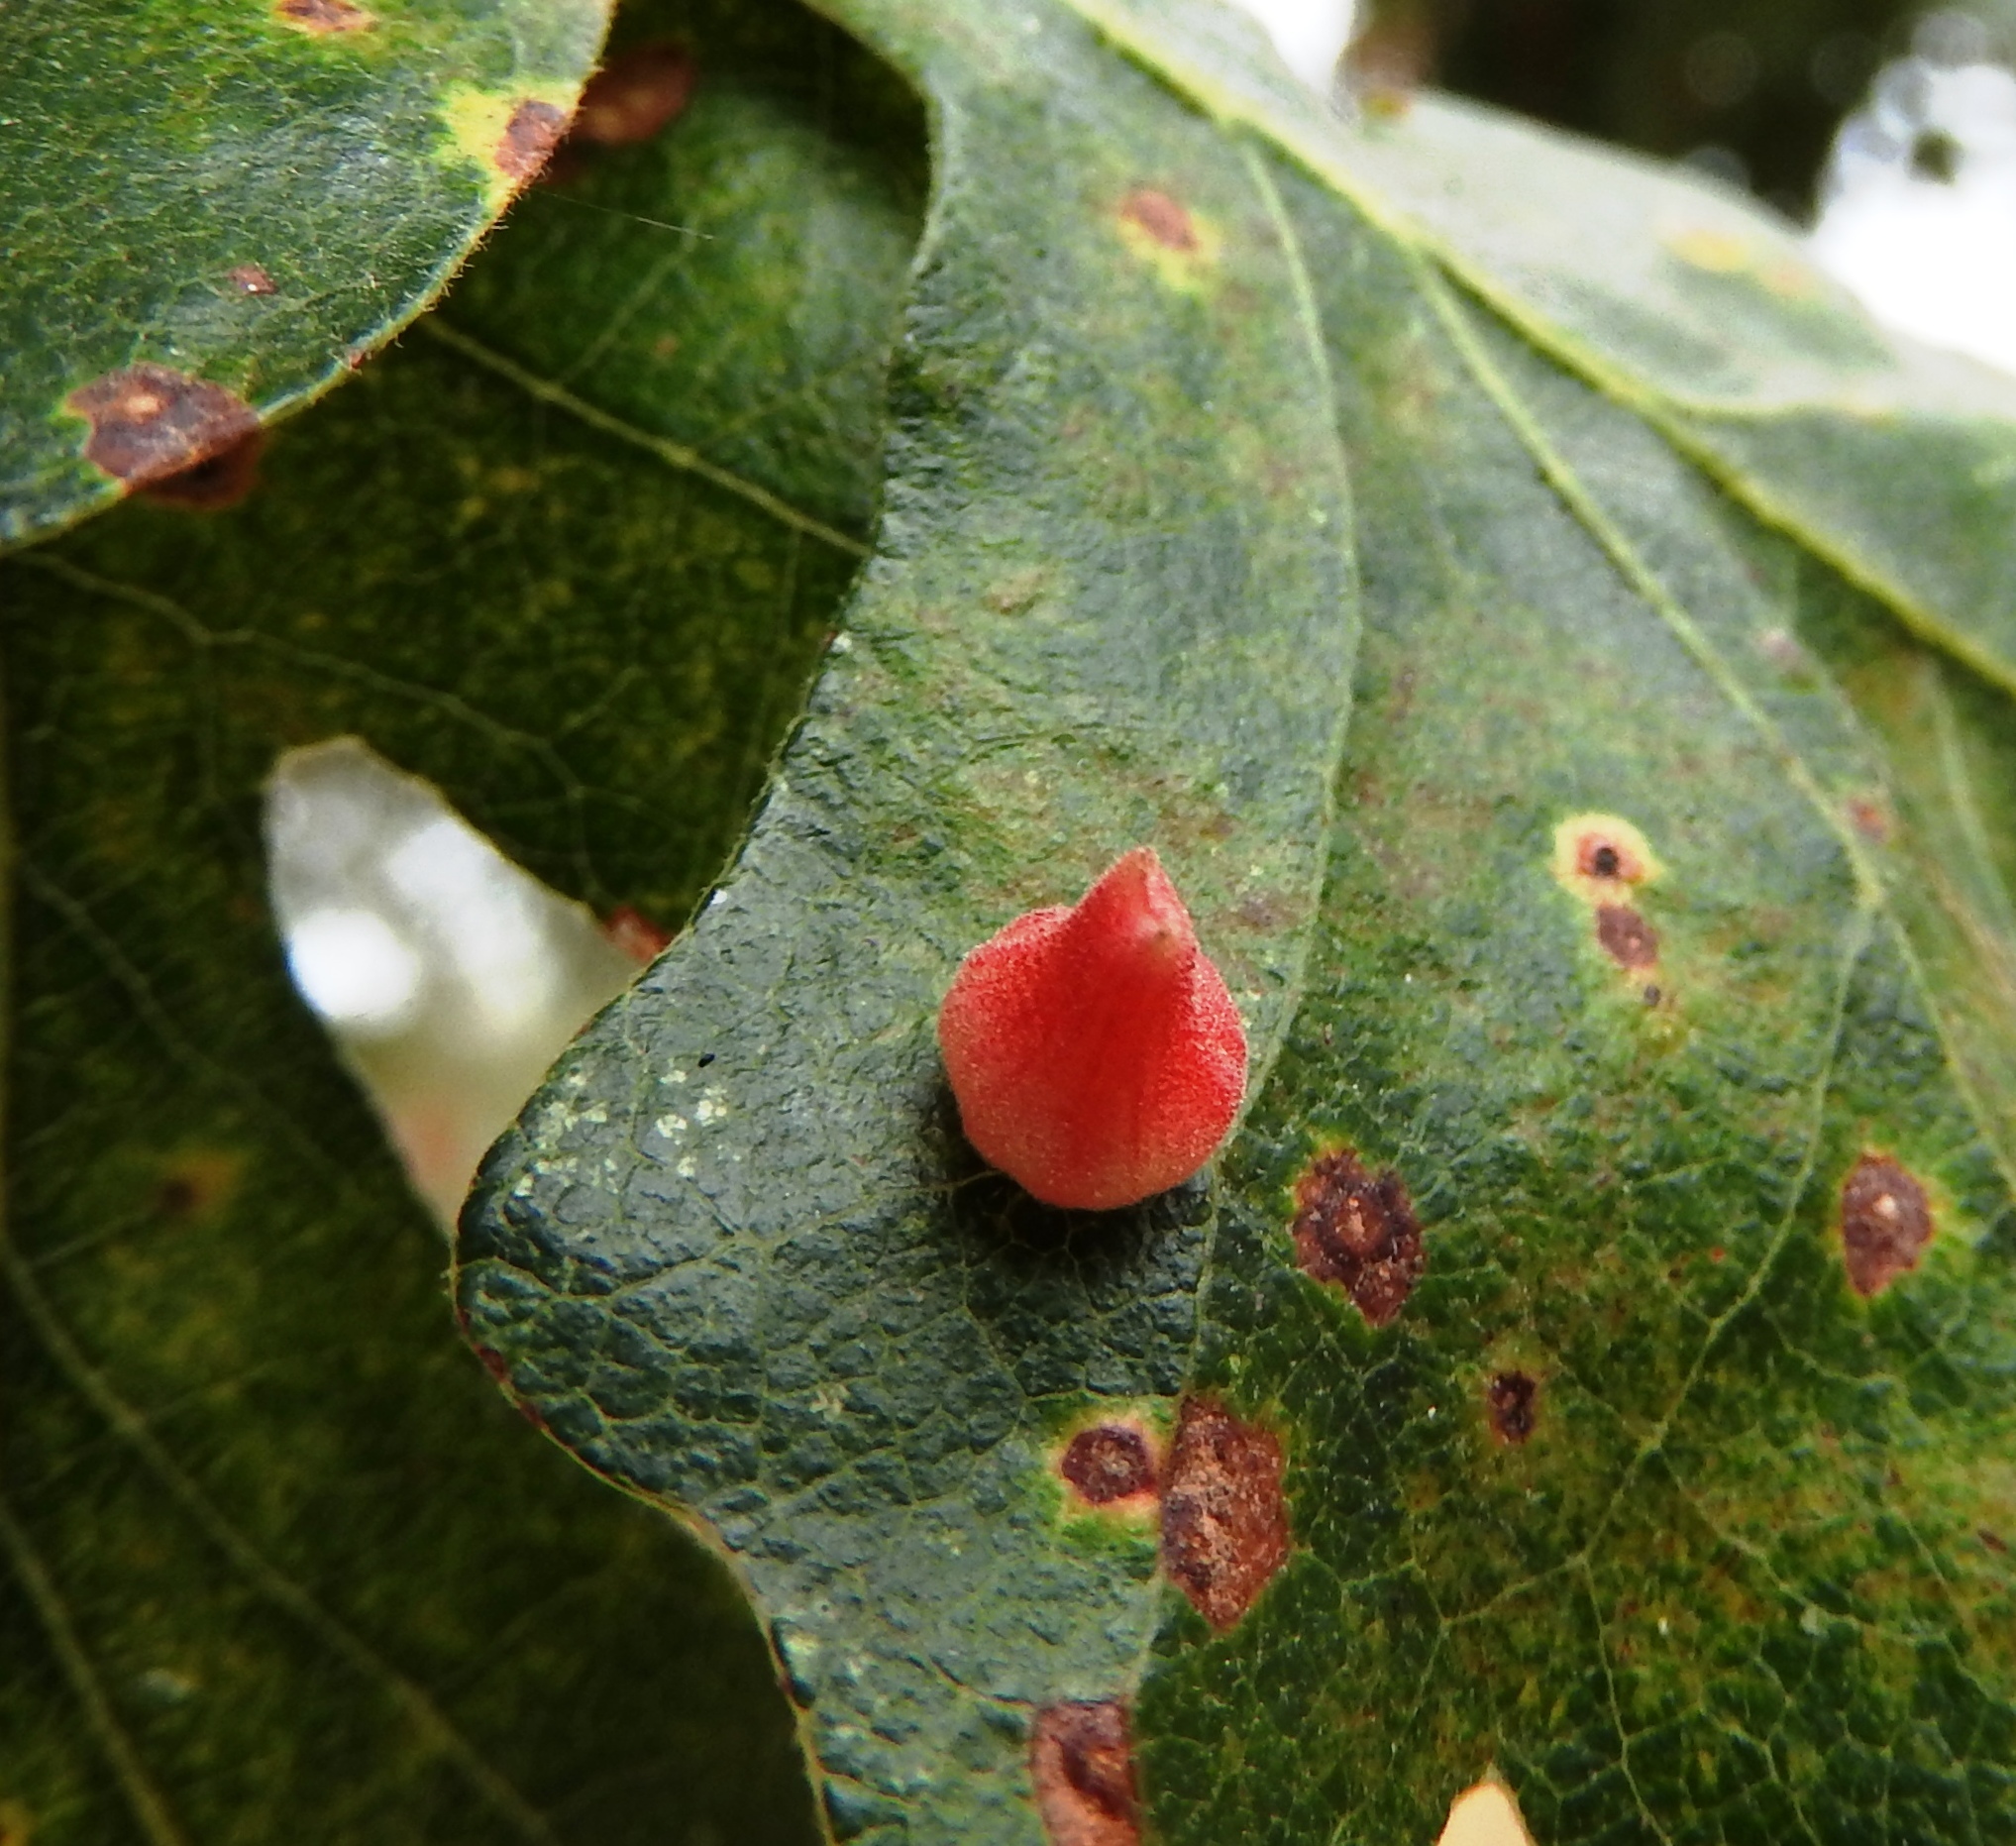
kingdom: Animalia
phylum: Arthropoda
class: Insecta
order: Hymenoptera
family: Cynipidae
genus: Andricus
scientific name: Andricus
